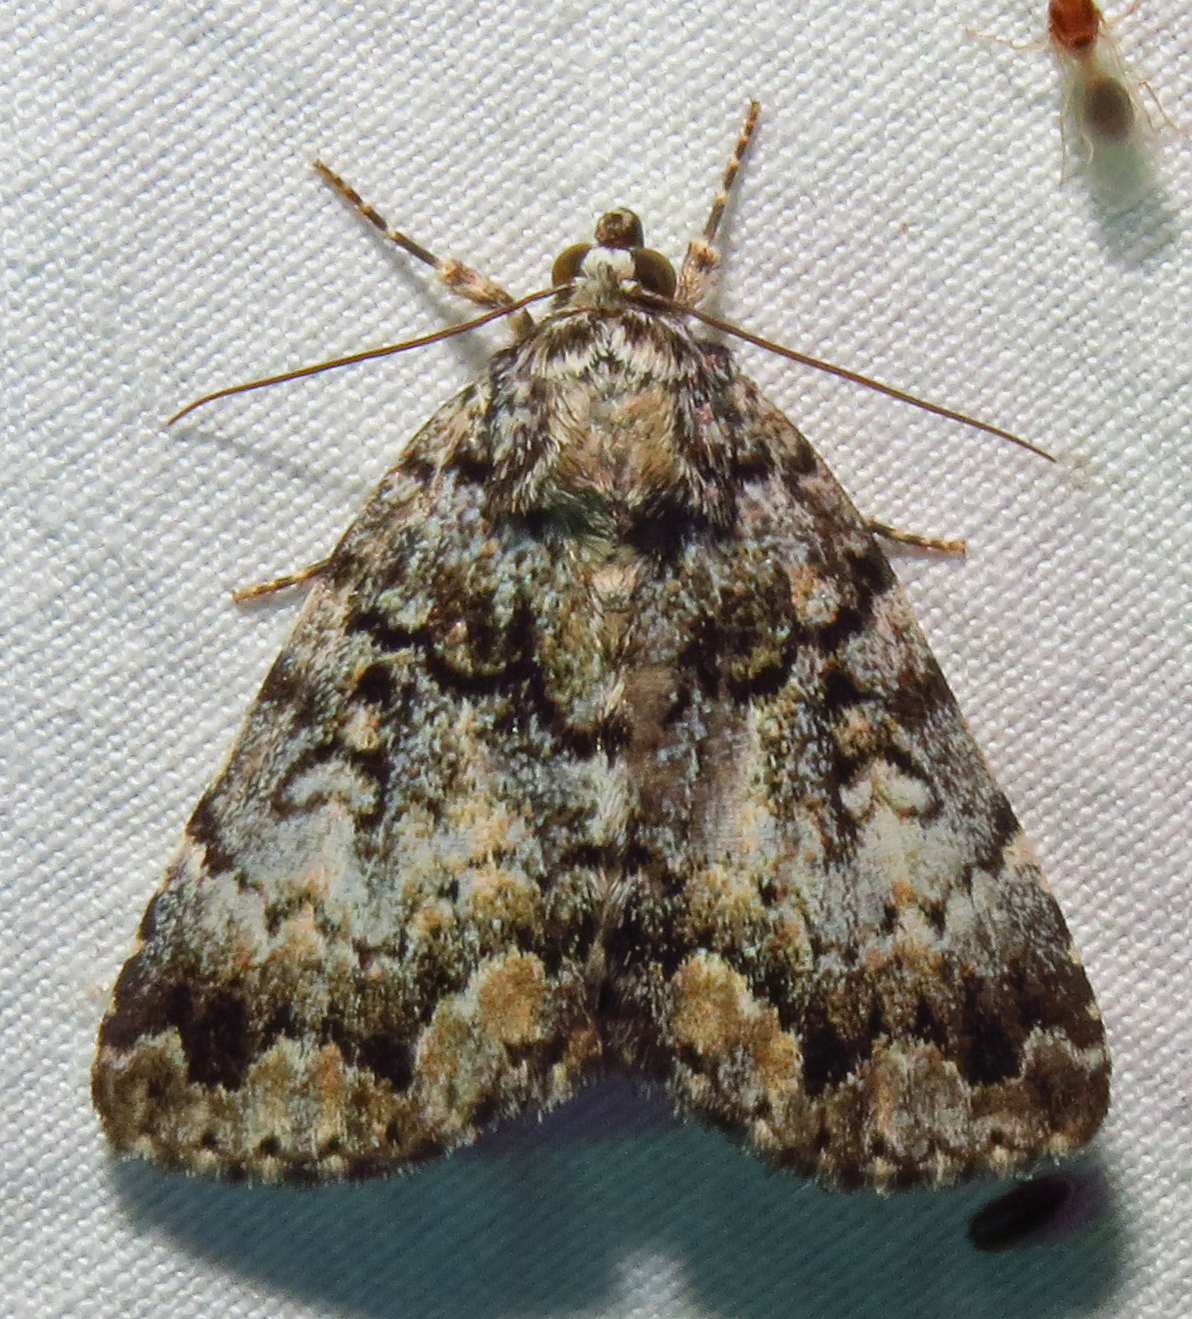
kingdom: Animalia
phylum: Arthropoda
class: Insecta
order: Lepidoptera
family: Erebidae
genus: Allotria
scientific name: Allotria elonympha
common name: False underwing
